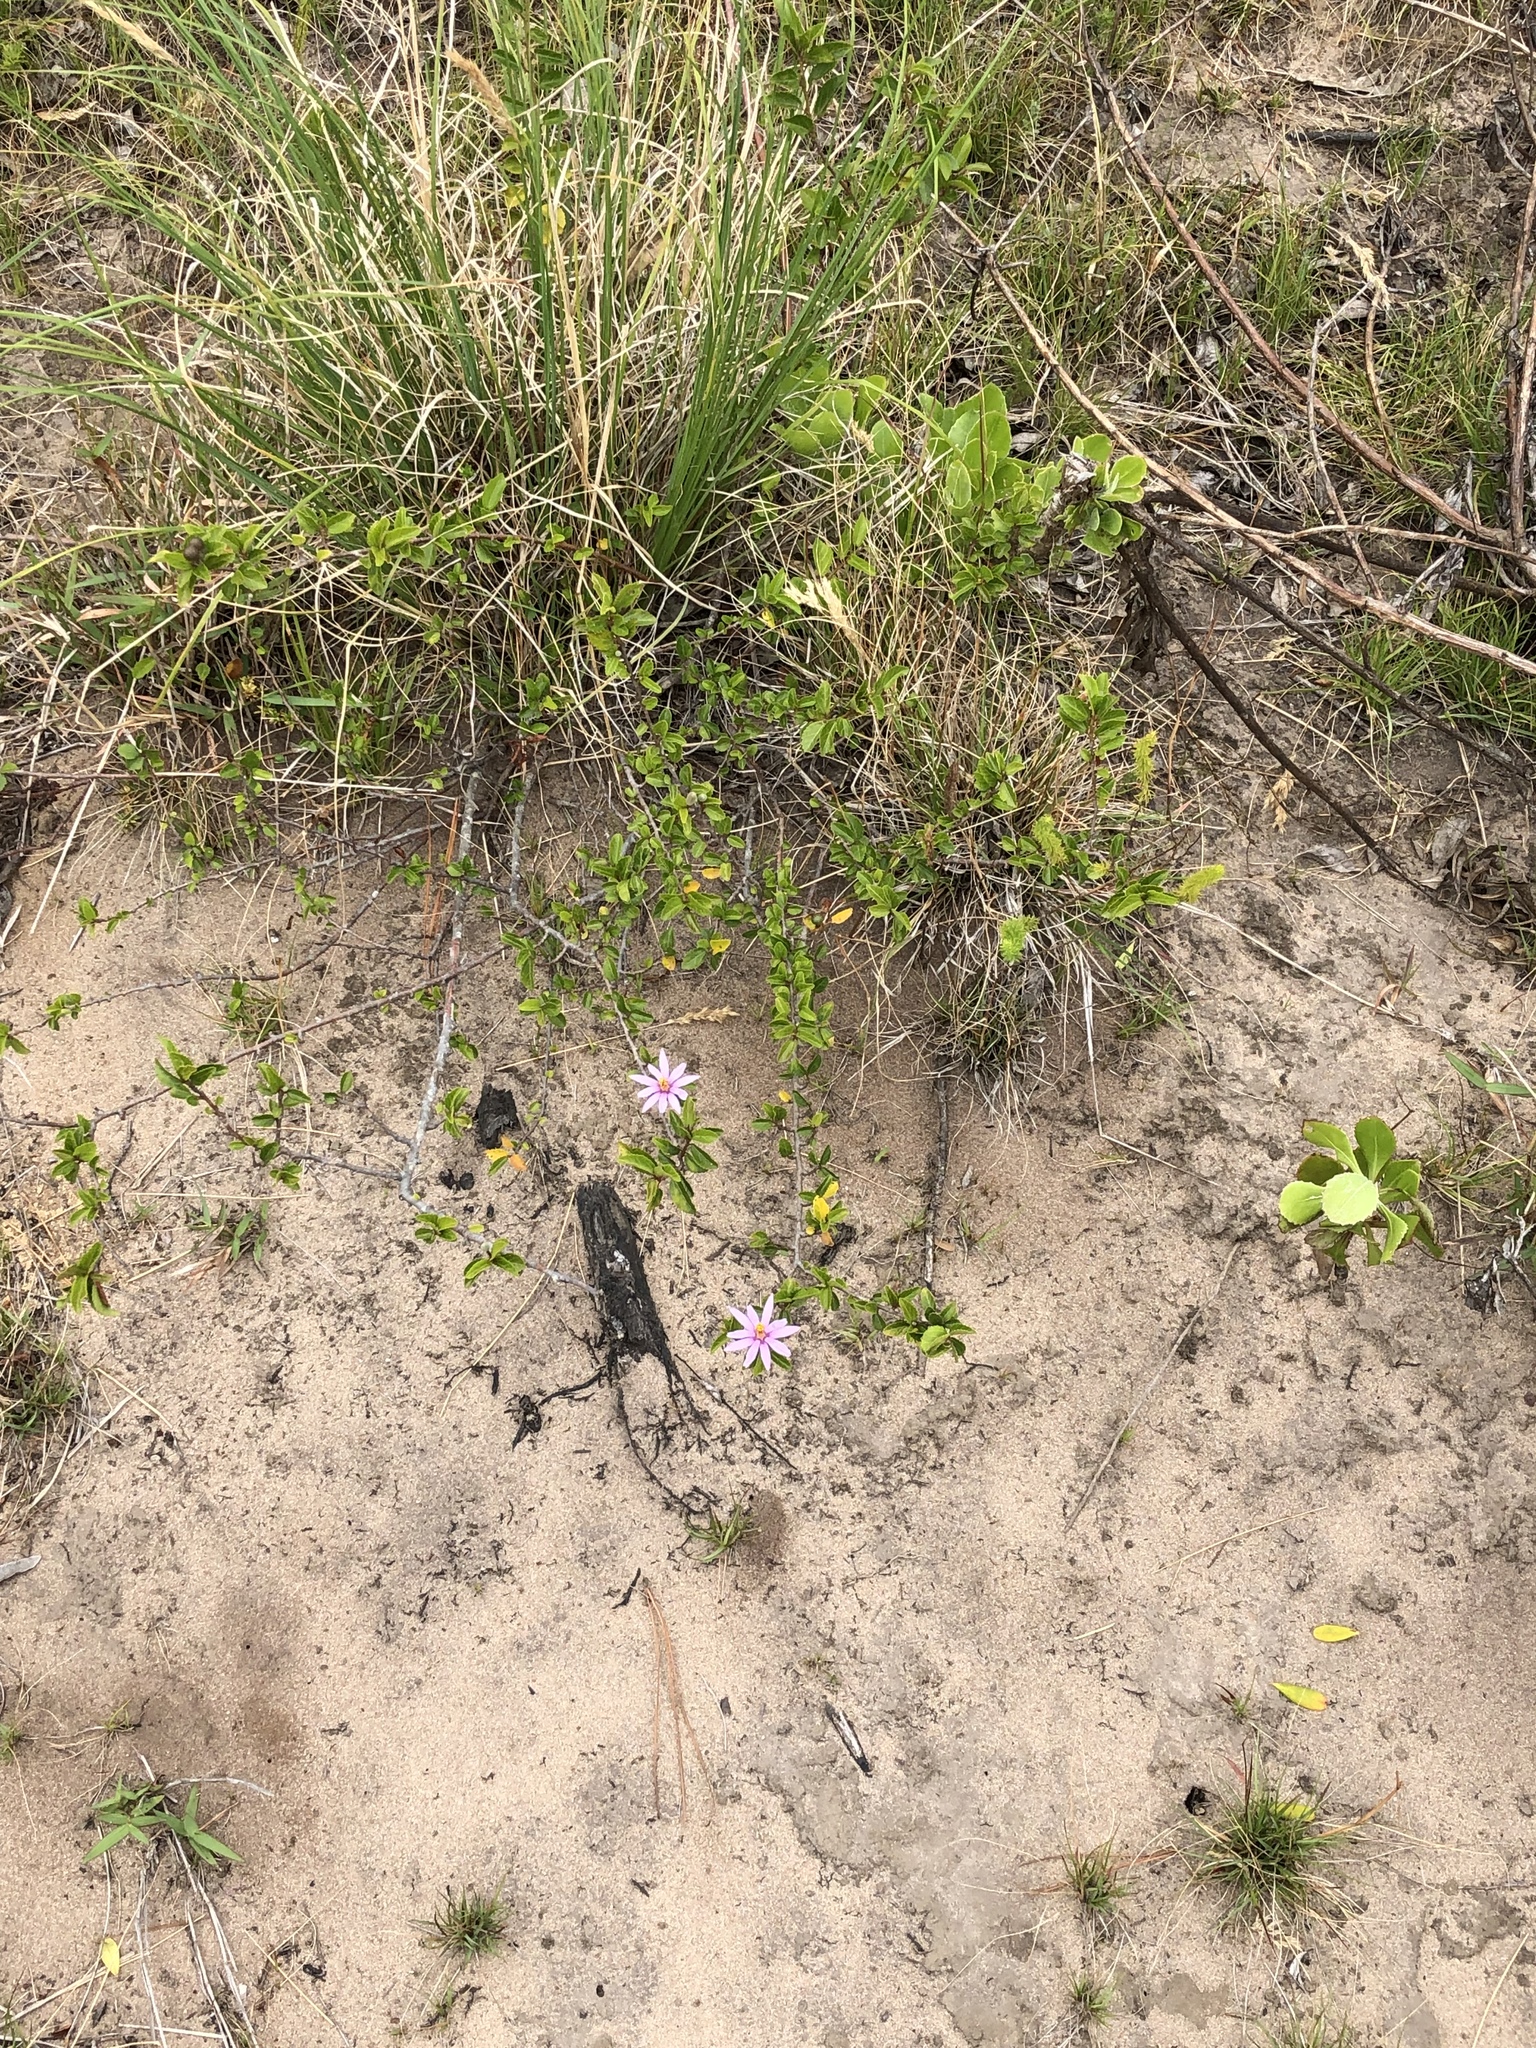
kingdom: Plantae
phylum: Tracheophyta
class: Magnoliopsida
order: Malvales
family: Malvaceae
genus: Grewia
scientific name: Grewia occidentalis
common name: Crossberry
